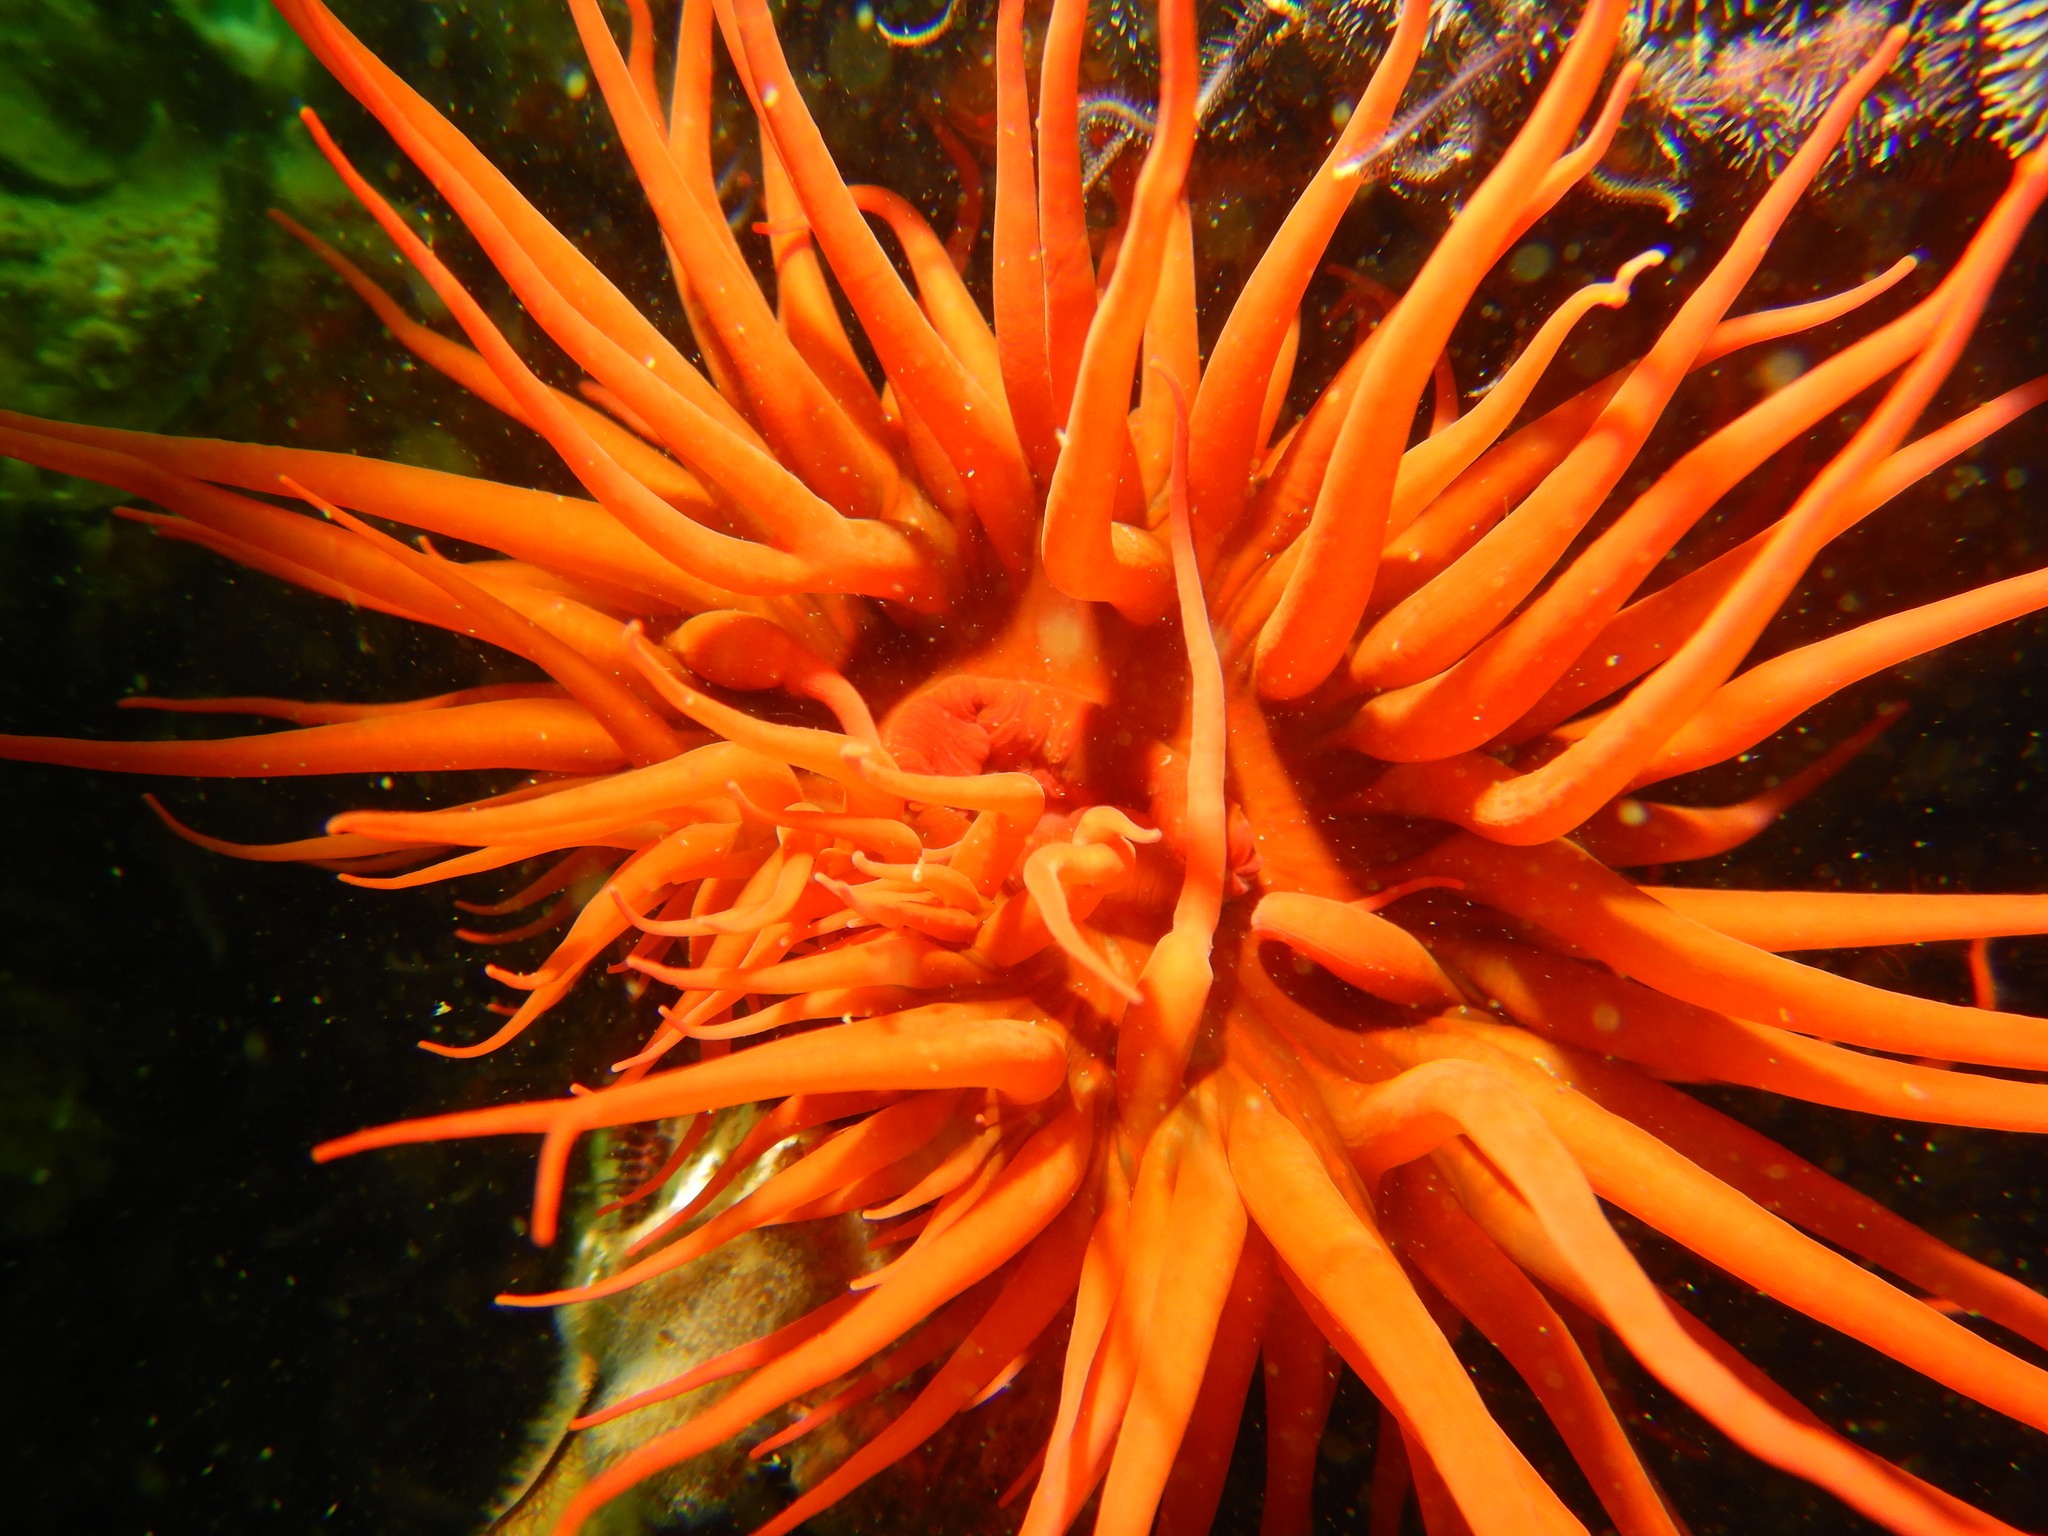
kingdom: Animalia
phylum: Cnidaria
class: Anthozoa
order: Actiniaria
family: Actiniidae
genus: Anemonia
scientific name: Anemonia alicemartinae
